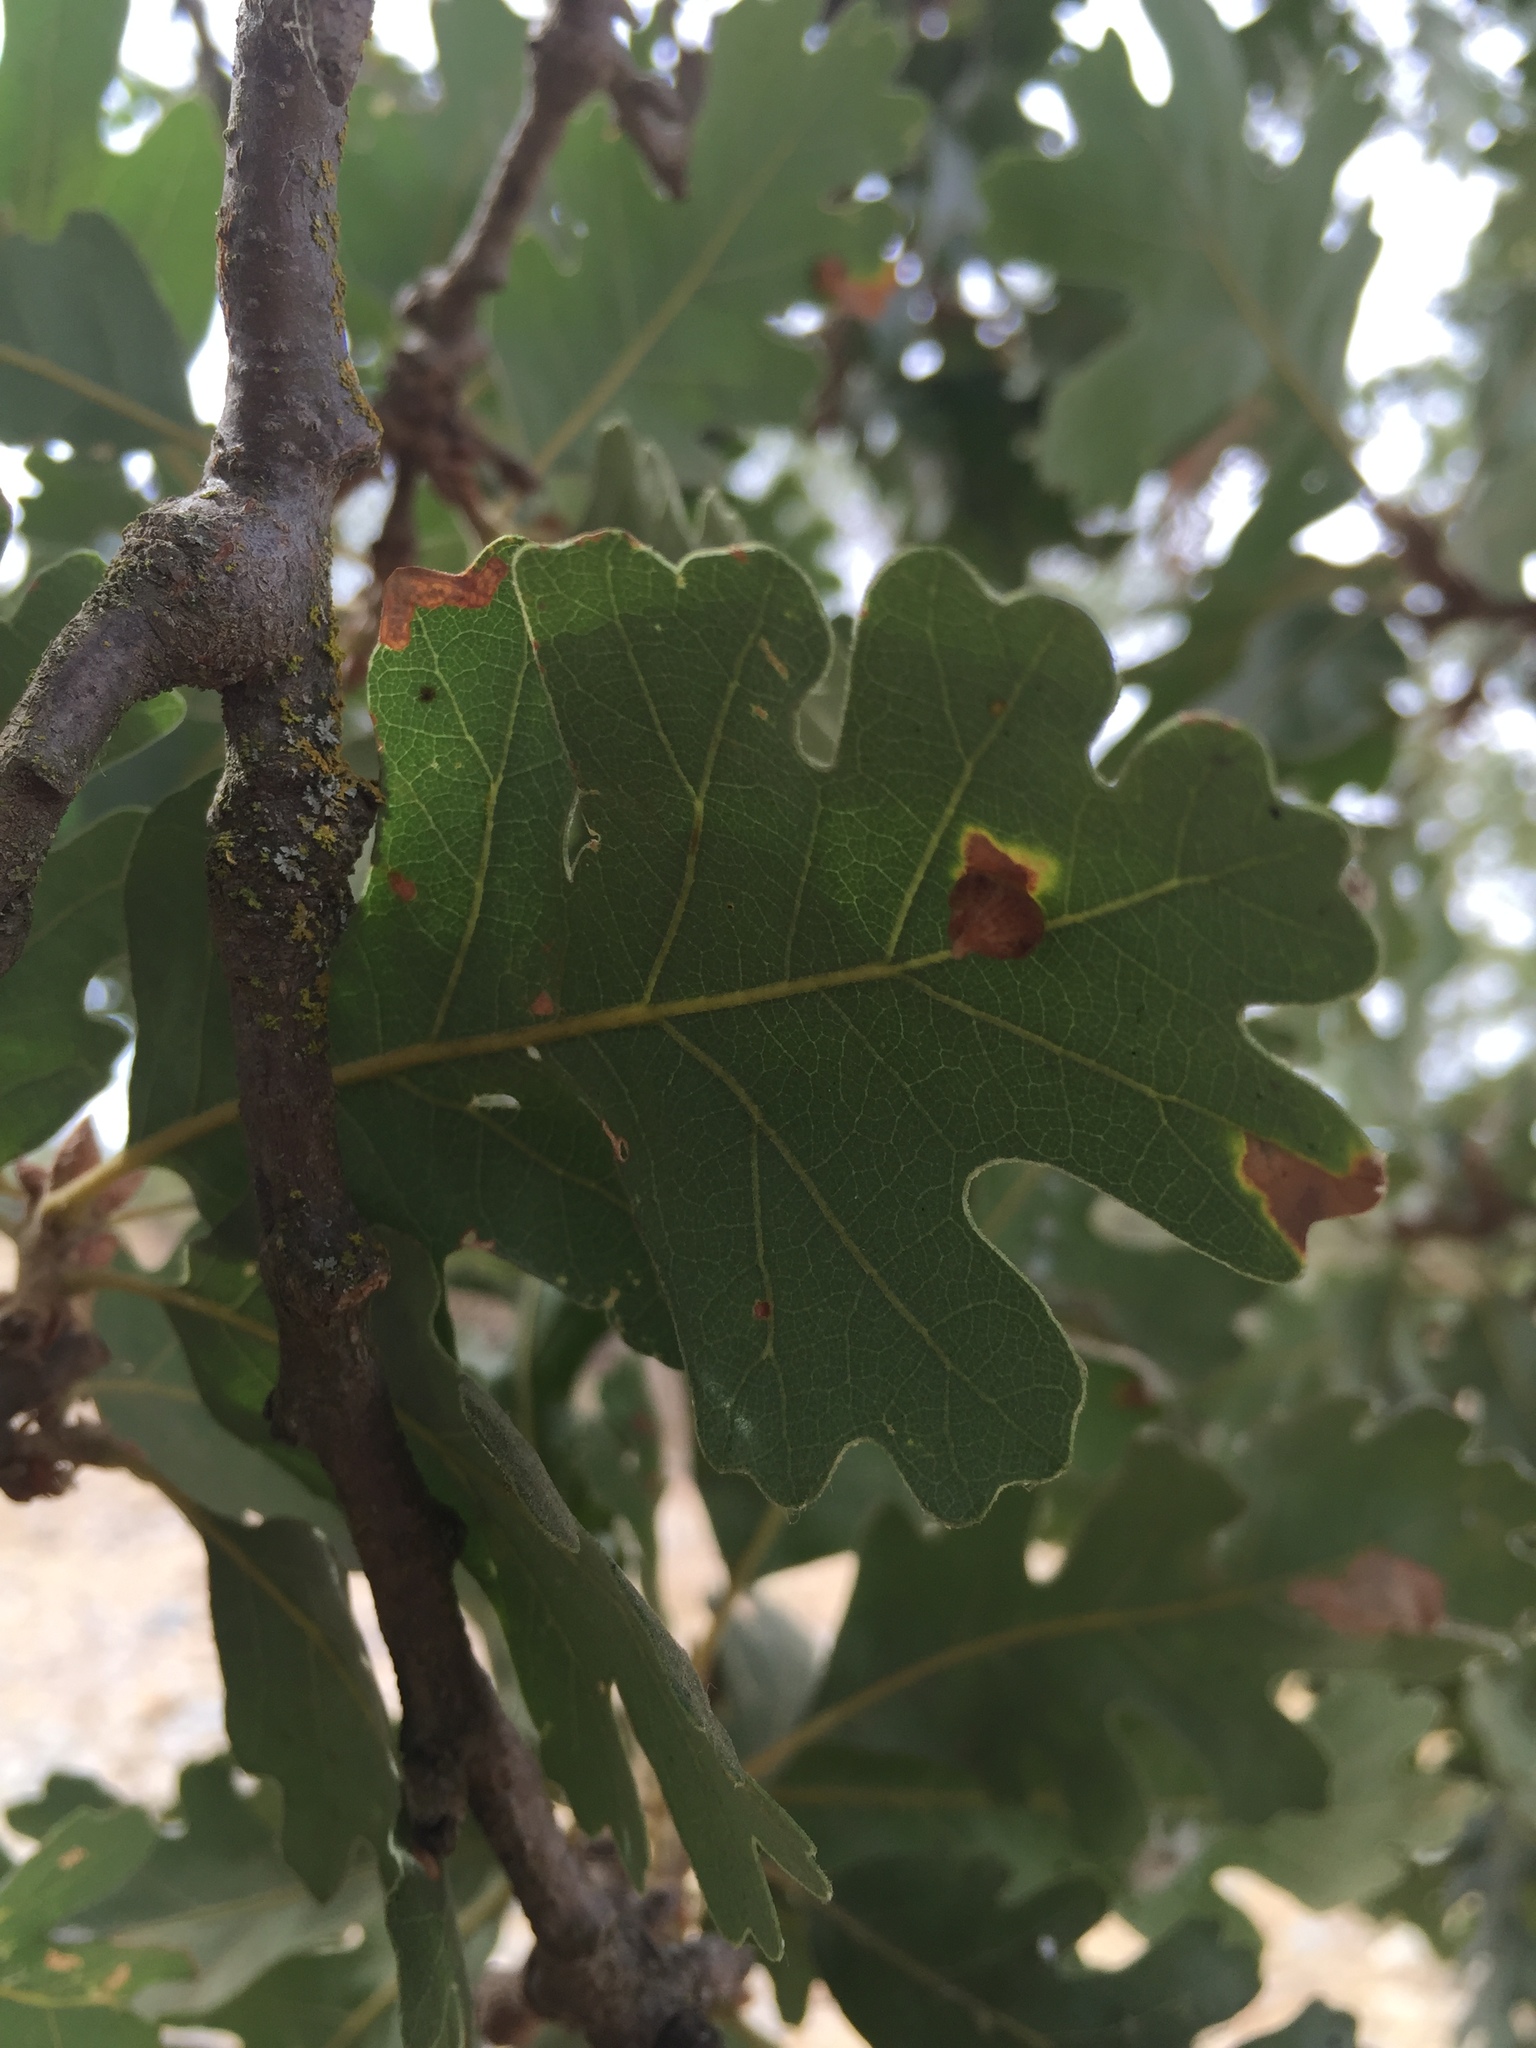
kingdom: Plantae
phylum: Tracheophyta
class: Magnoliopsida
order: Fagales
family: Fagaceae
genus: Quercus
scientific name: Quercus lobata
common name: Valley oak
